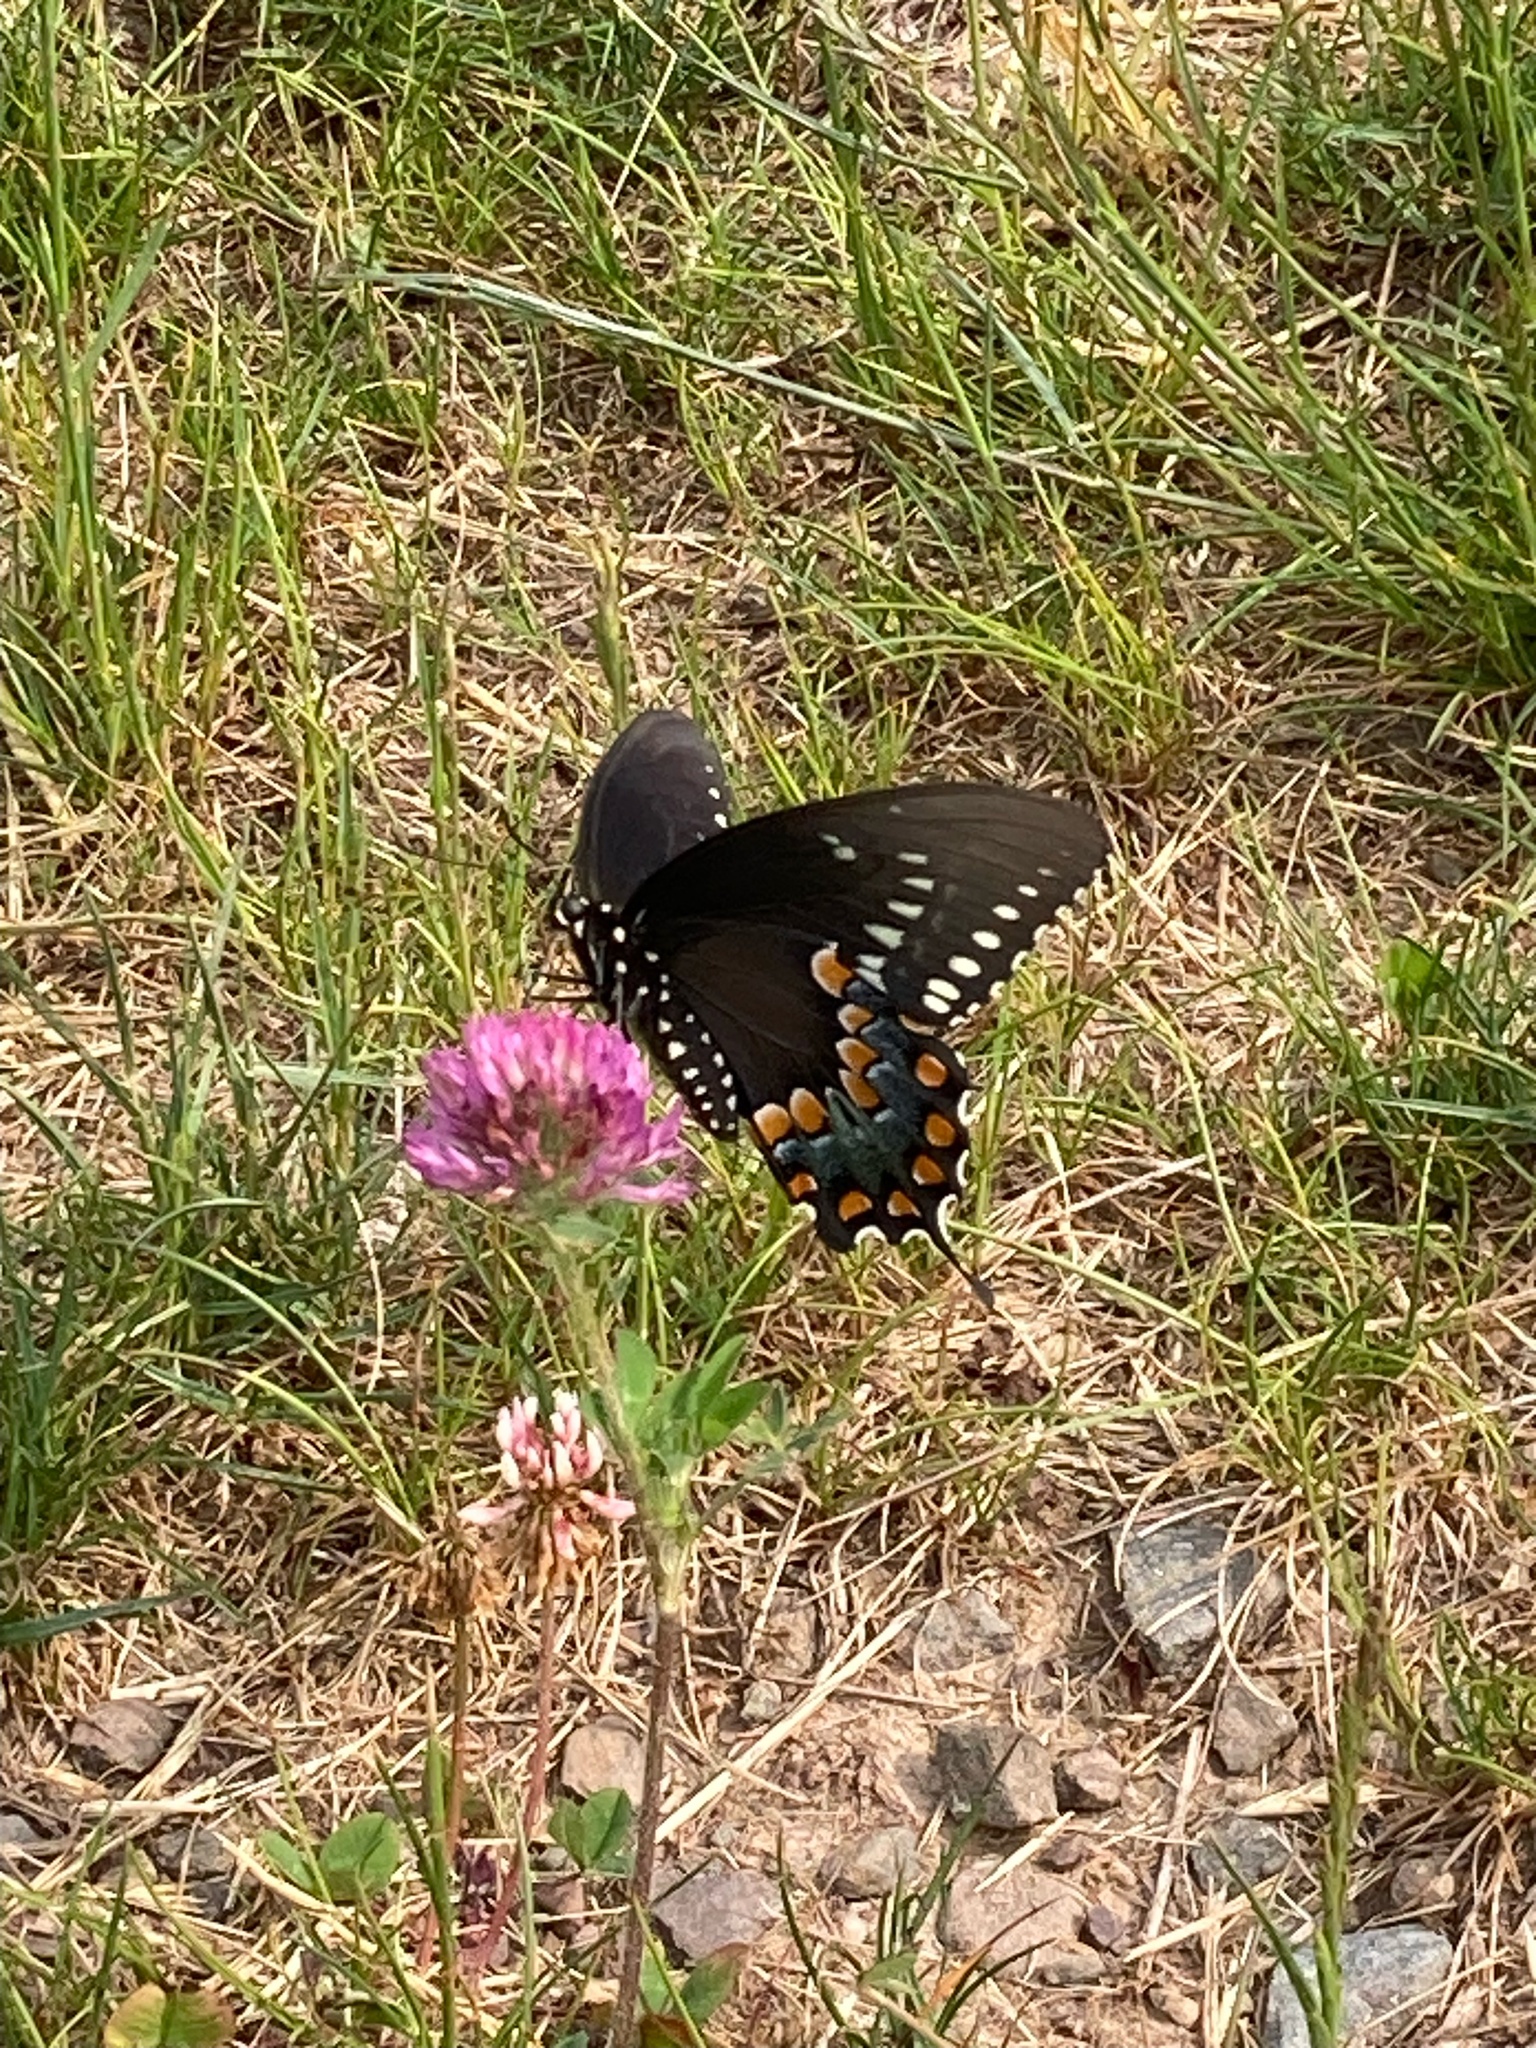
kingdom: Animalia
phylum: Arthropoda
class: Insecta
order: Lepidoptera
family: Papilionidae
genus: Papilio
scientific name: Papilio troilus
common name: Spicebush swallowtail
